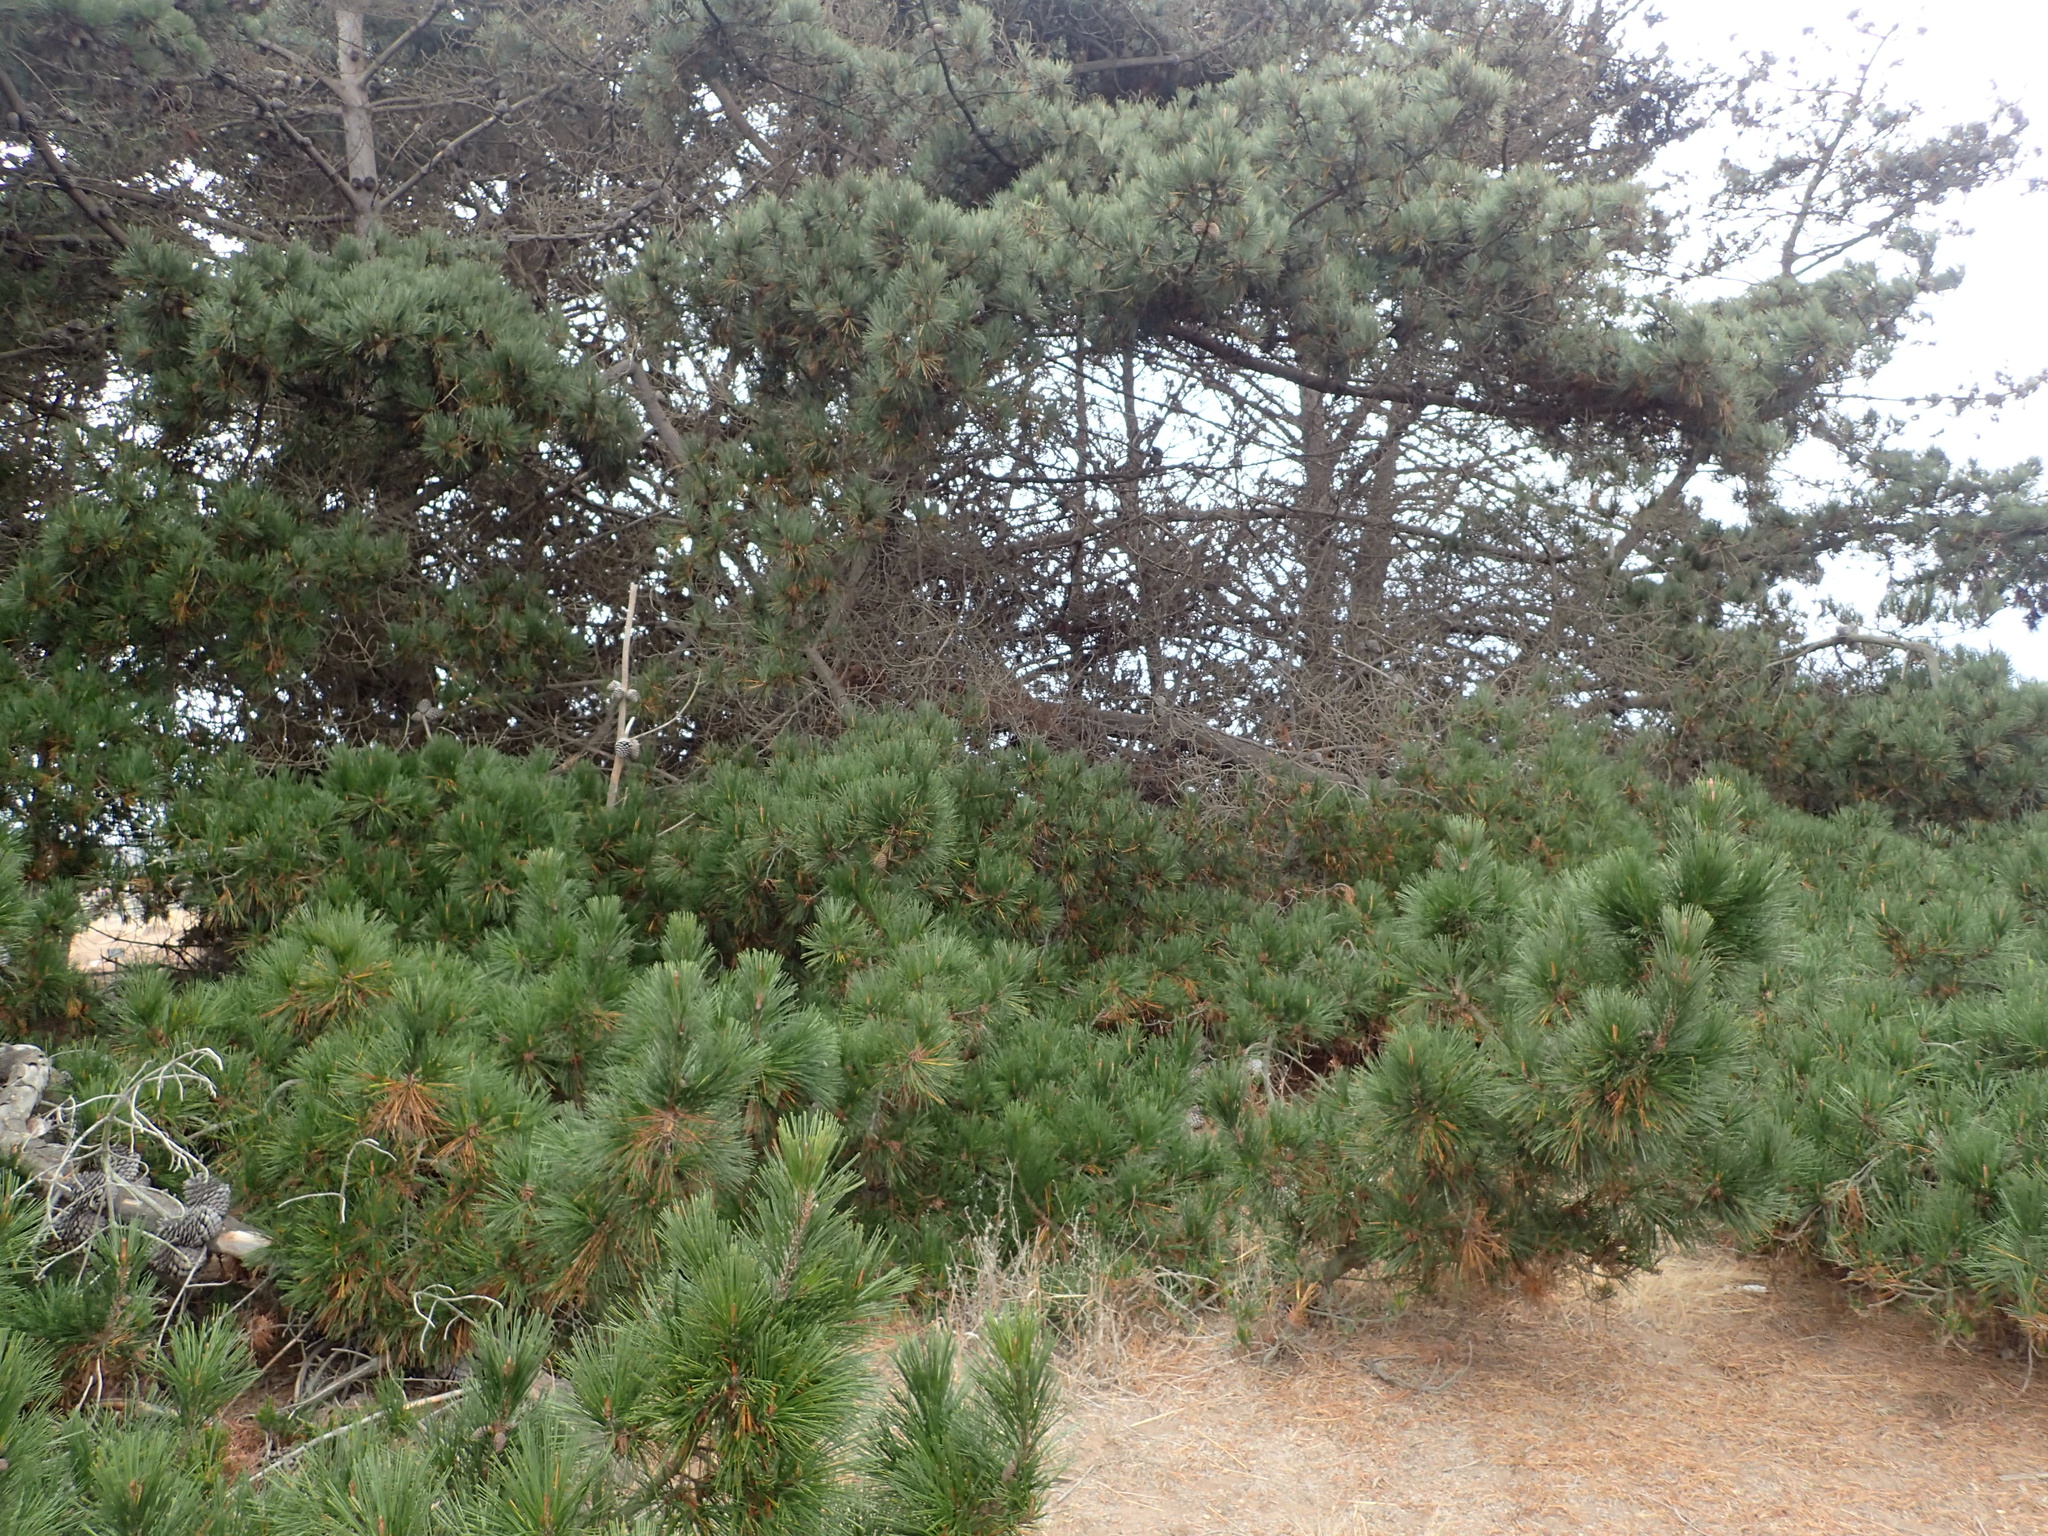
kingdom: Plantae
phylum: Tracheophyta
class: Pinopsida
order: Pinales
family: Pinaceae
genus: Pinus
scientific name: Pinus radiata
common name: Monterey pine
